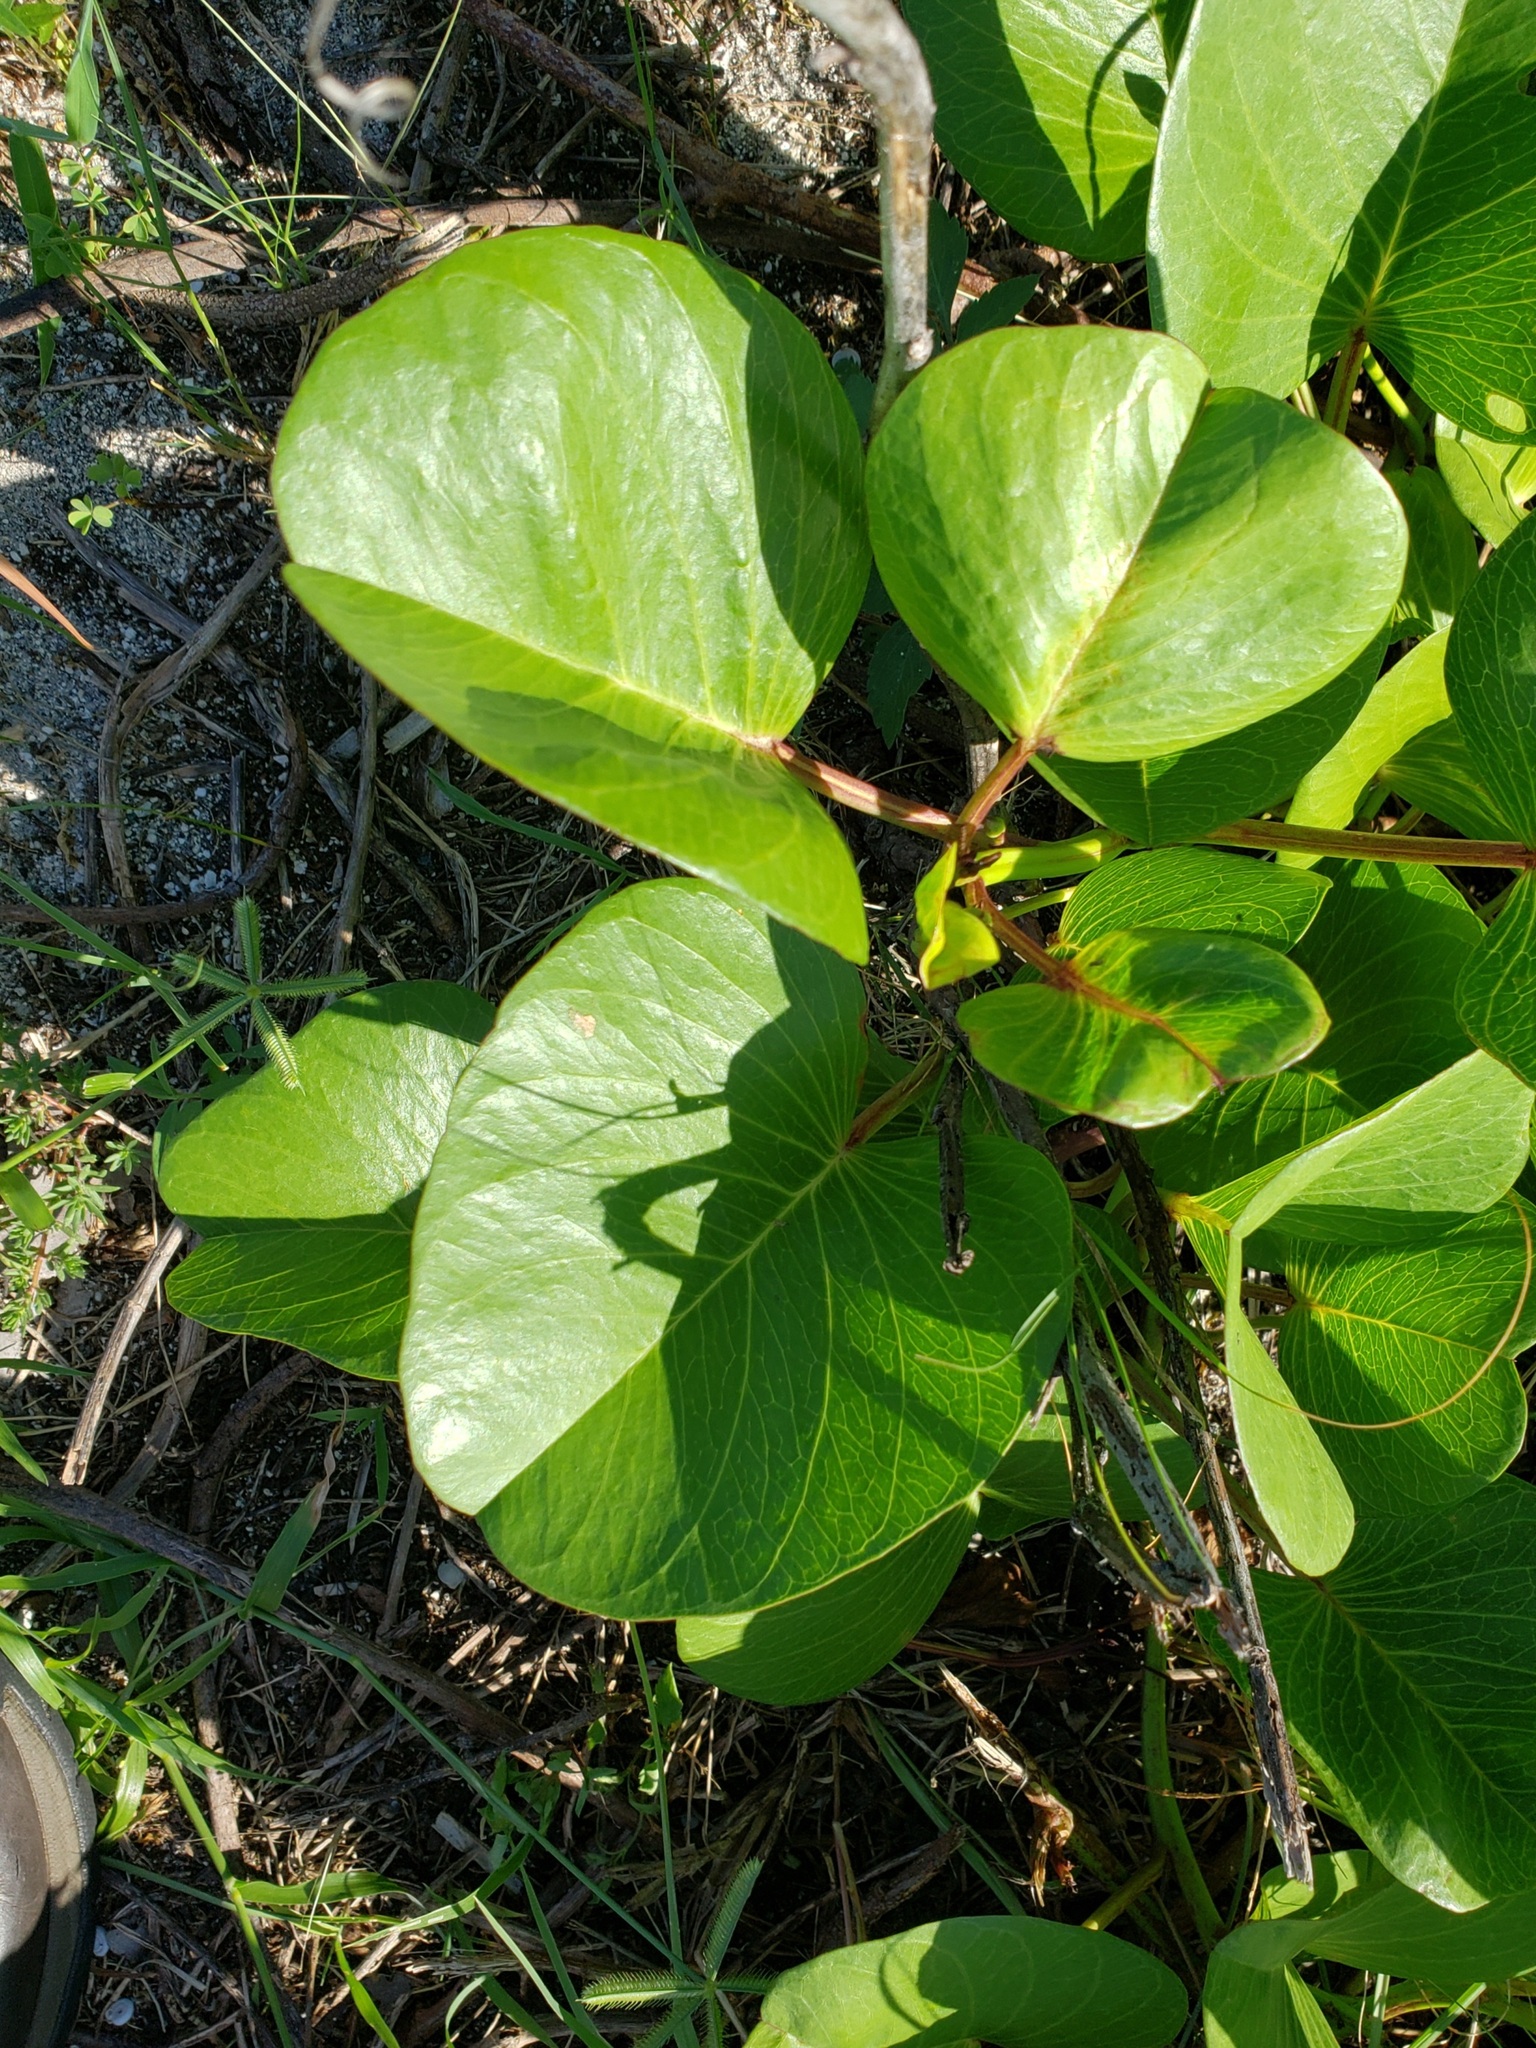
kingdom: Plantae
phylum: Tracheophyta
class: Magnoliopsida
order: Solanales
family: Convolvulaceae
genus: Ipomoea
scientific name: Ipomoea pes-caprae
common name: Beach morning glory
